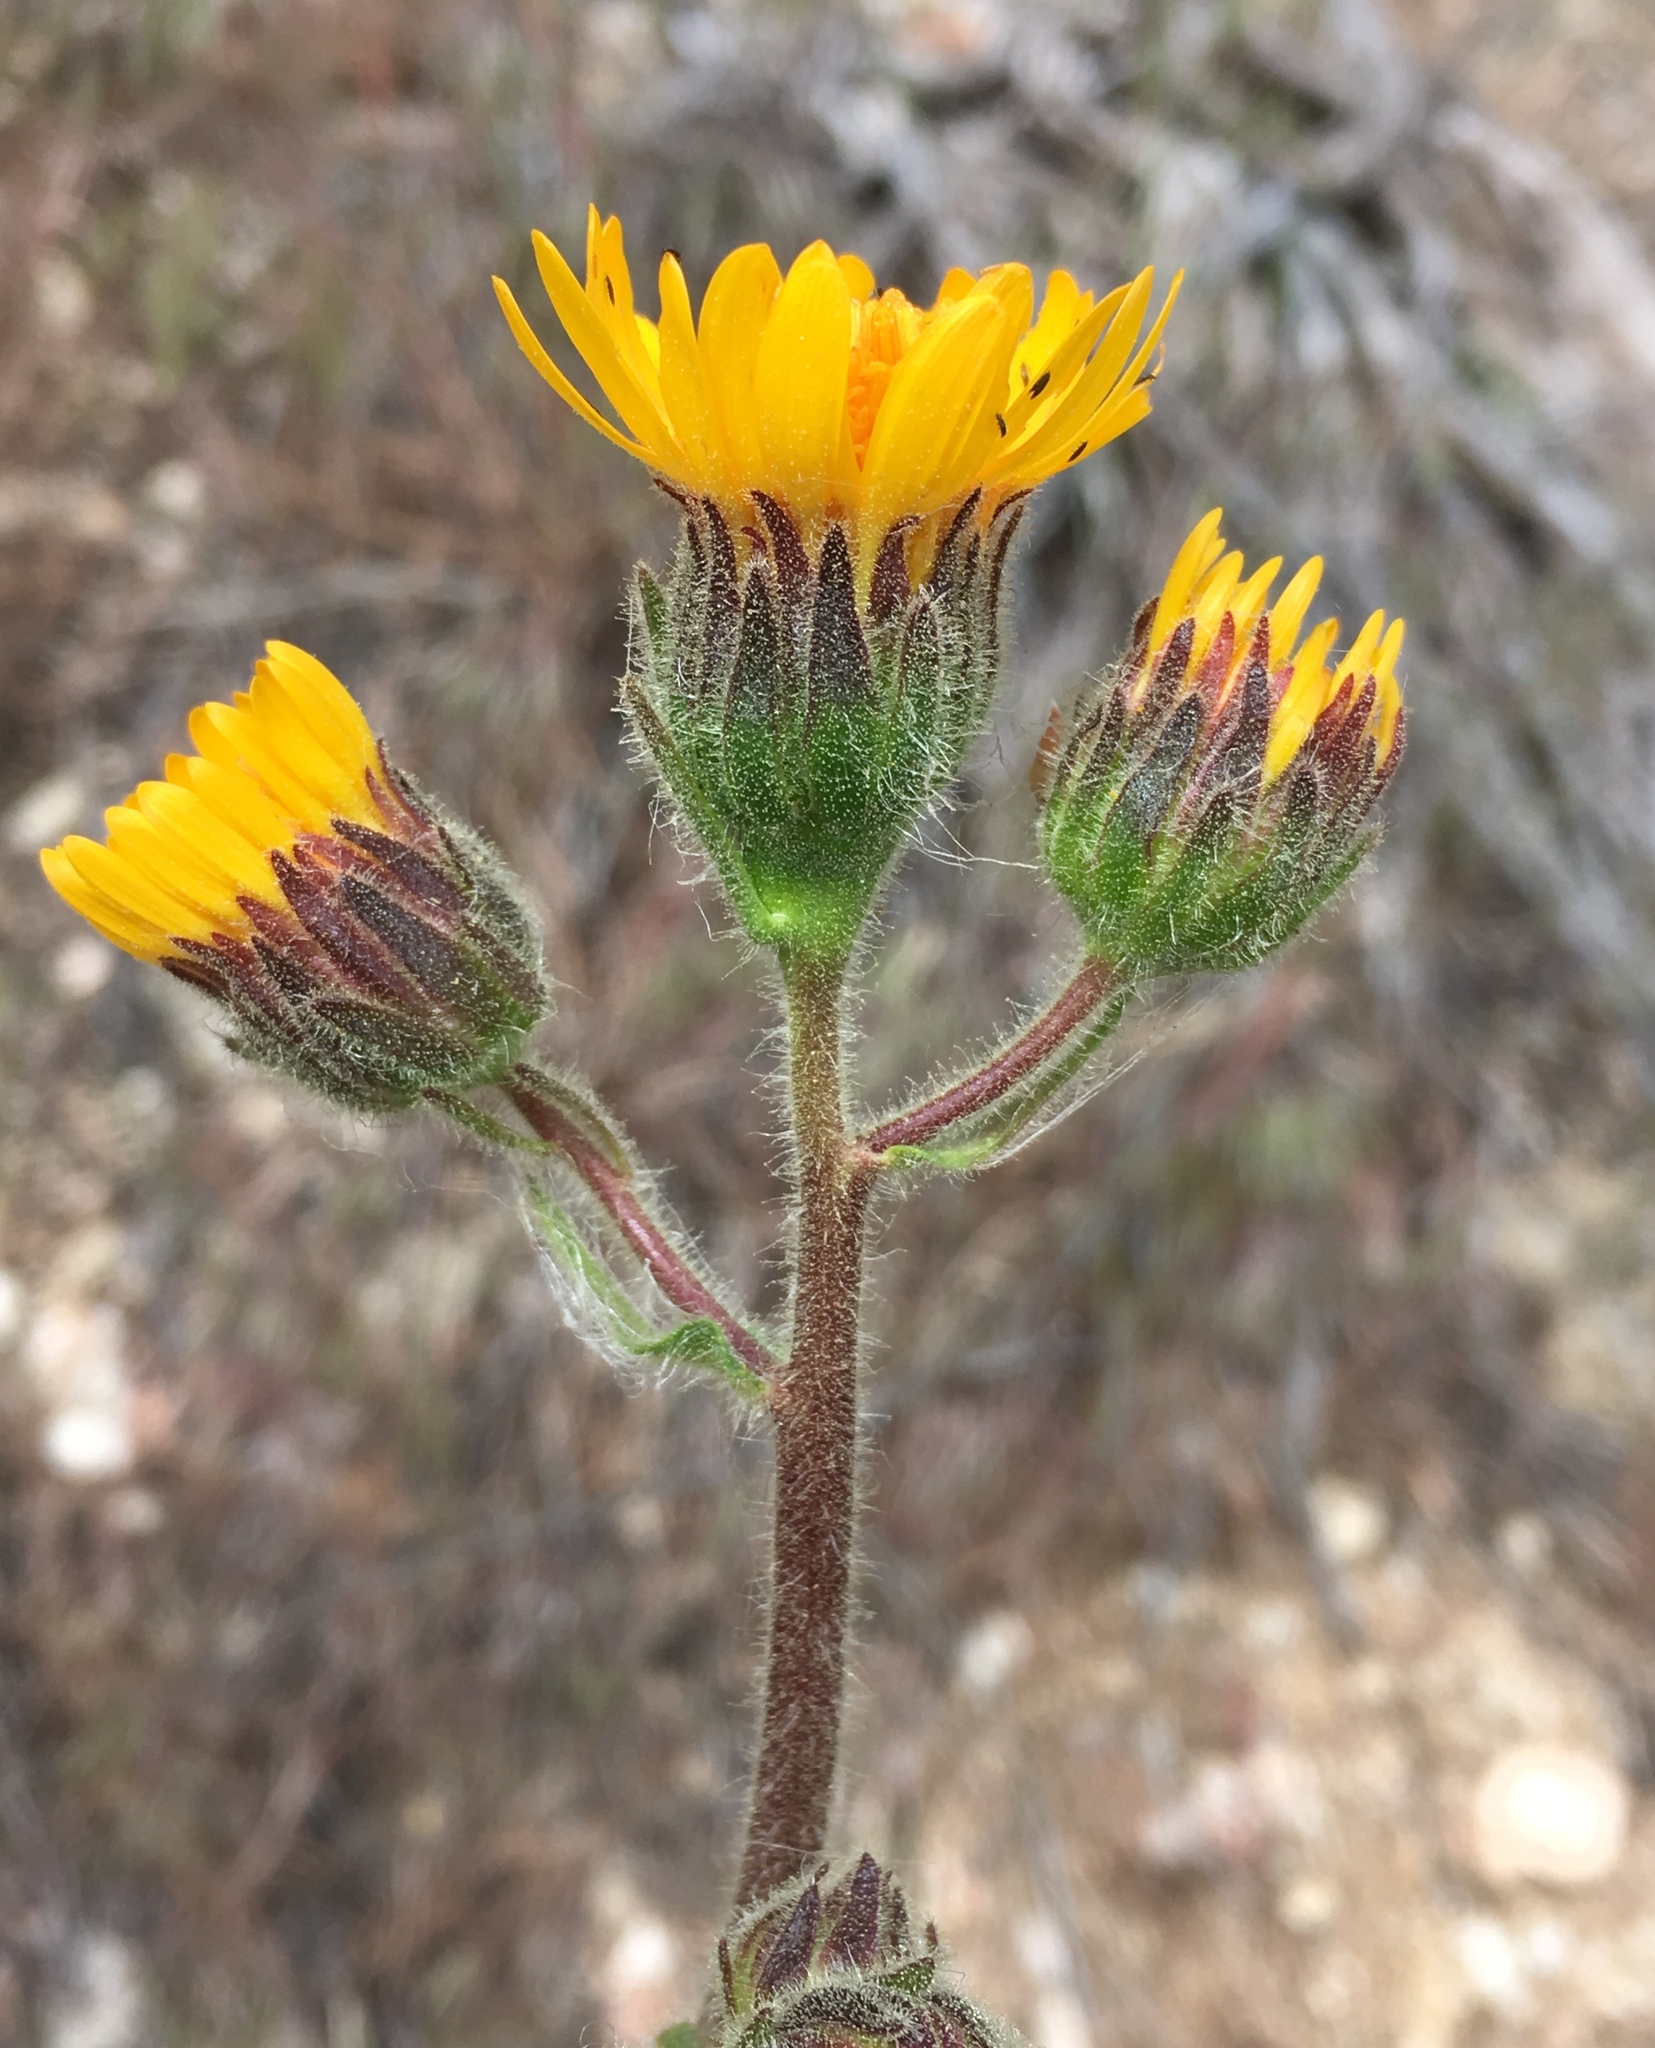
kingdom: Plantae
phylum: Tracheophyta
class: Magnoliopsida
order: Asterales
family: Asteraceae
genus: Hulsea
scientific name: Hulsea vestita
